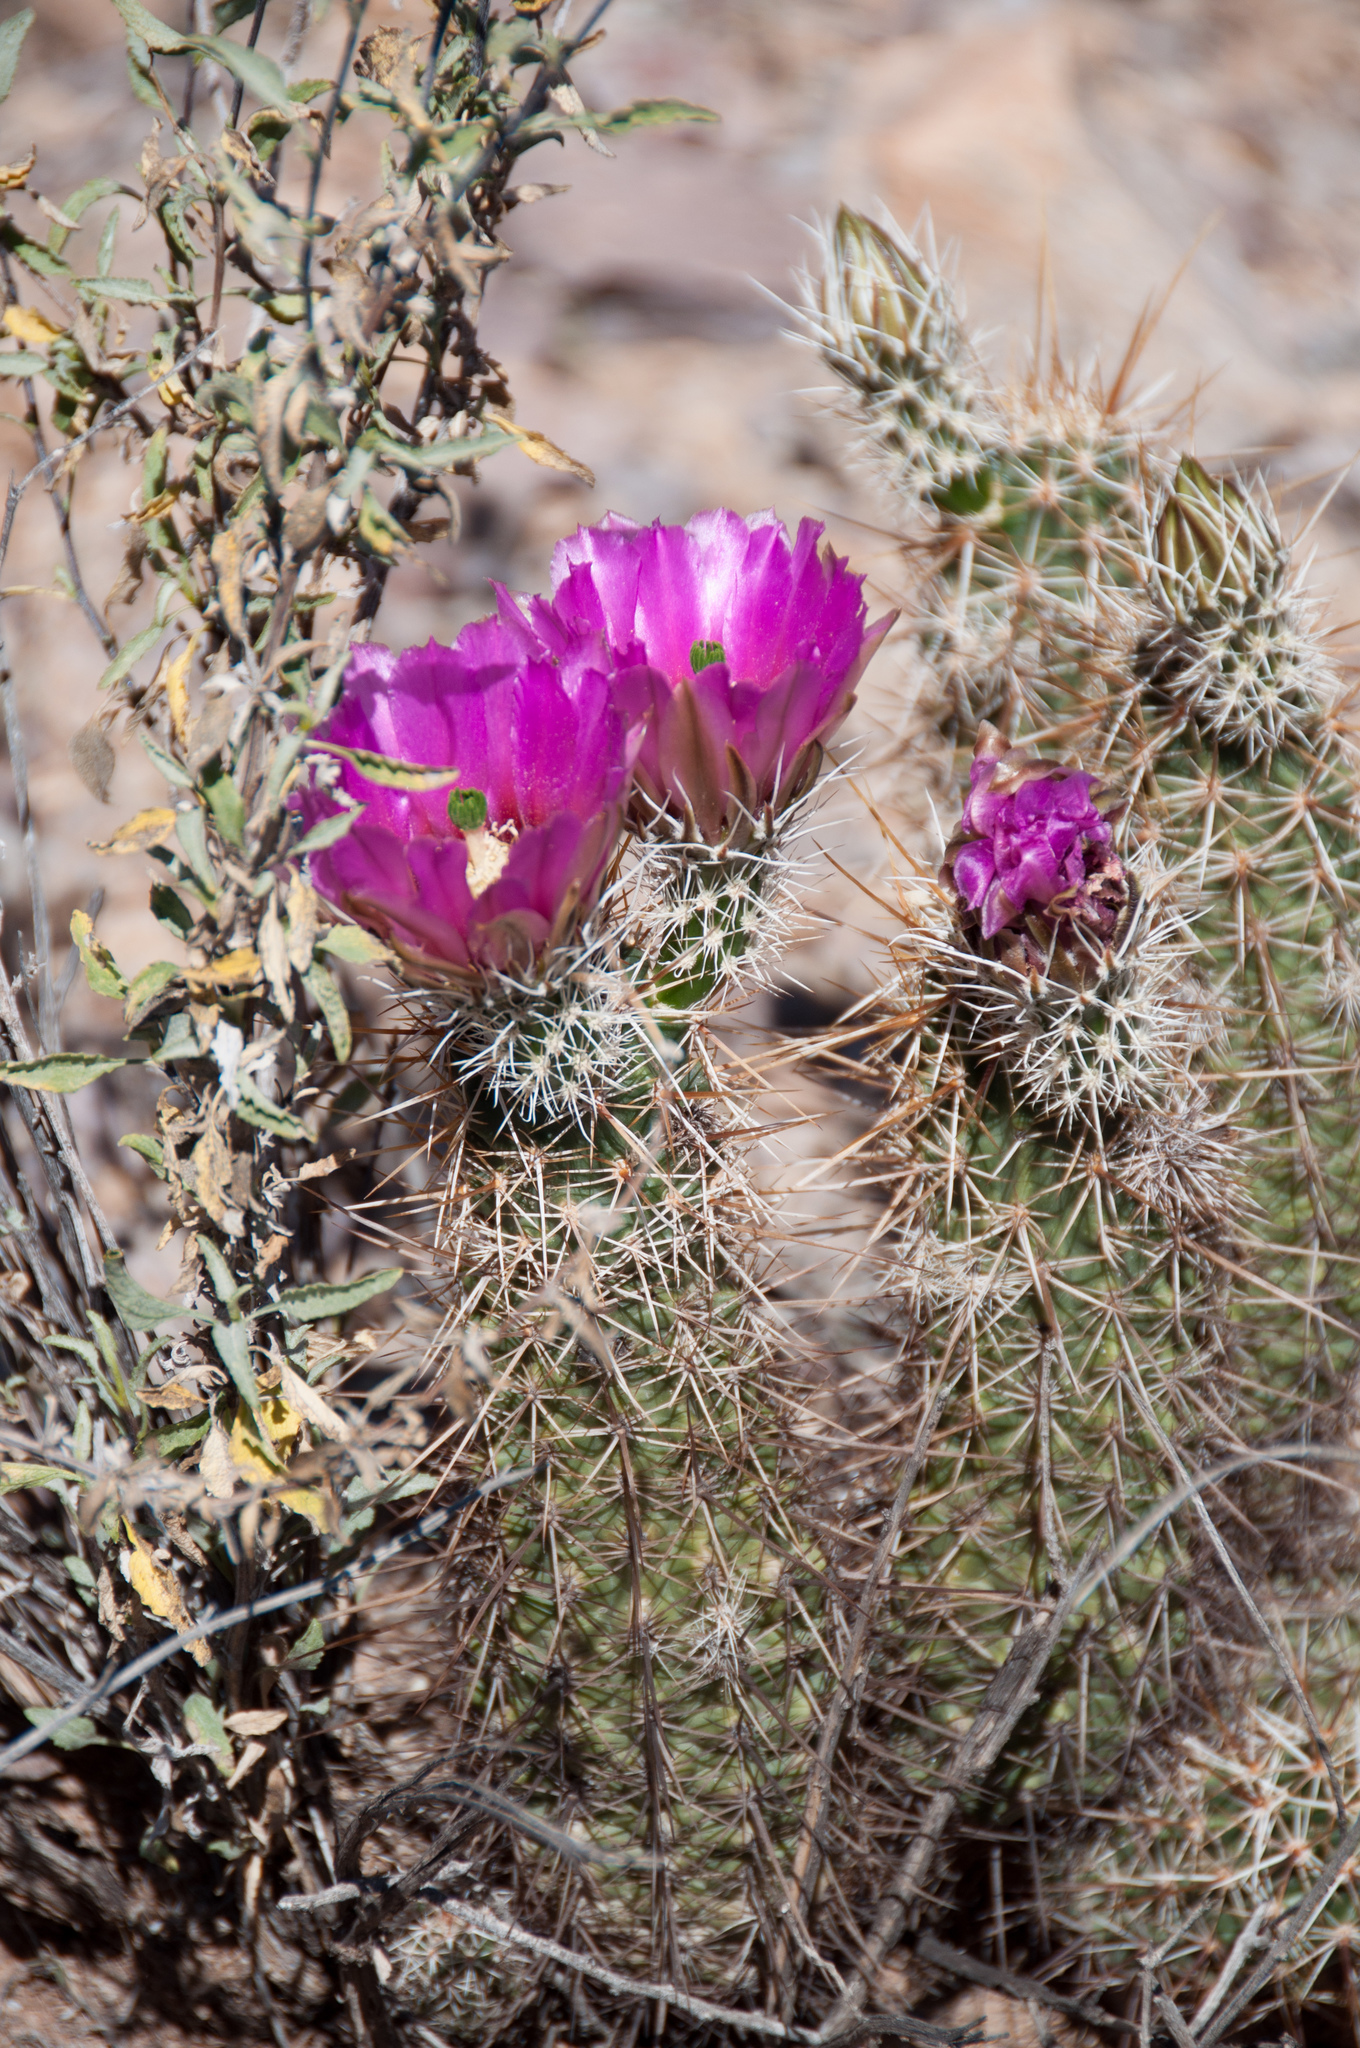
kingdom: Plantae
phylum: Tracheophyta
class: Magnoliopsida
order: Caryophyllales
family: Cactaceae
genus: Echinocereus
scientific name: Echinocereus fasciculatus
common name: Bundle hedgehog
